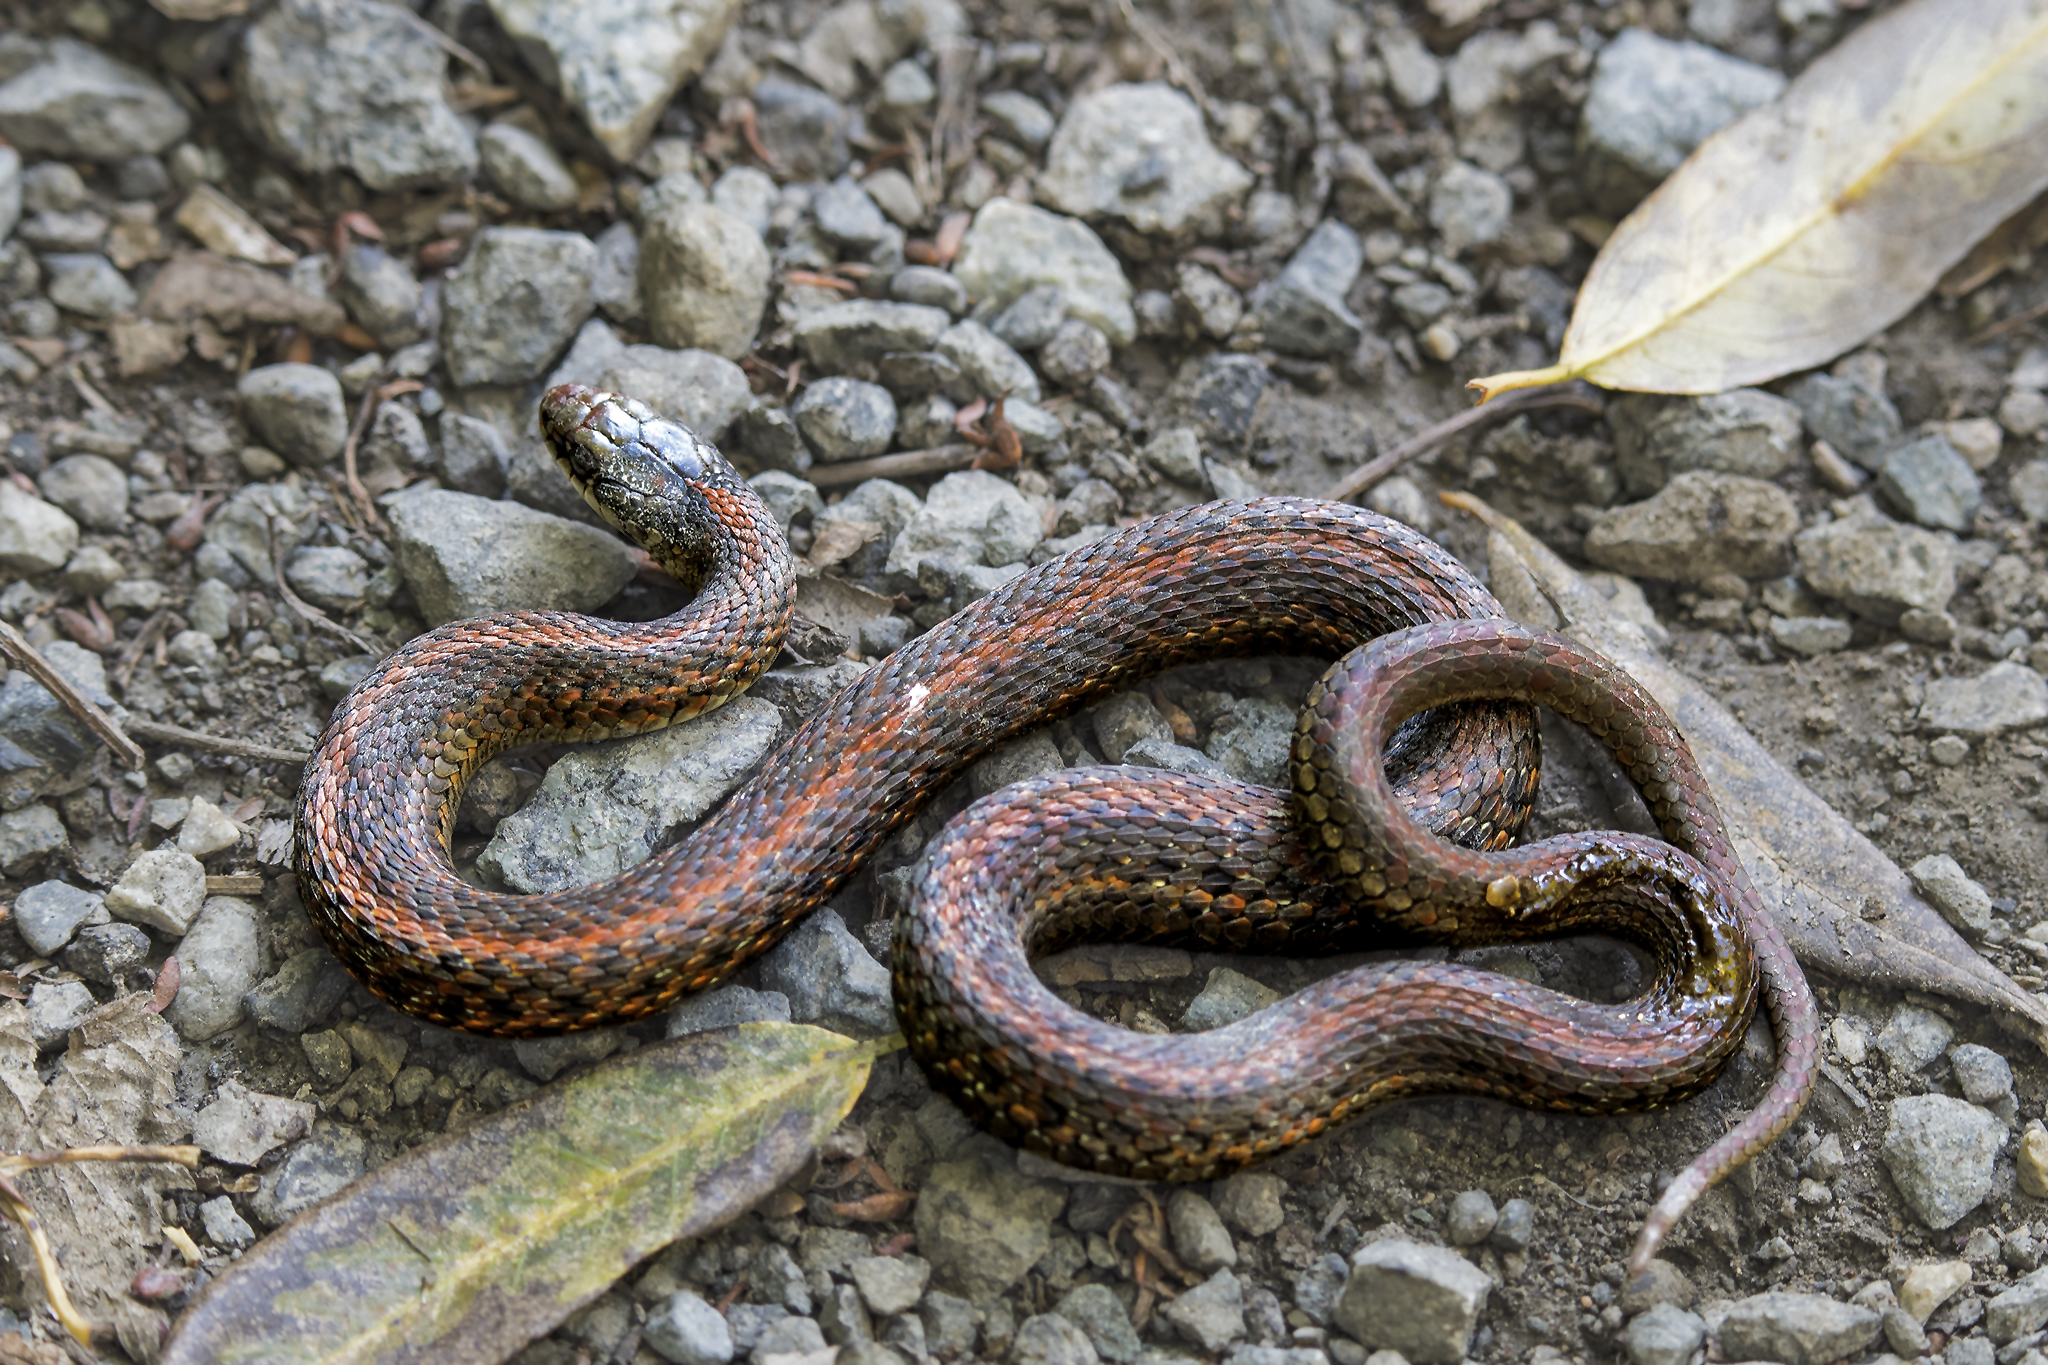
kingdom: Animalia
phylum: Chordata
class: Squamata
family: Colubridae
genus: Thamnophis
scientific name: Thamnophis ordinoides
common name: Northwestern garter snake
